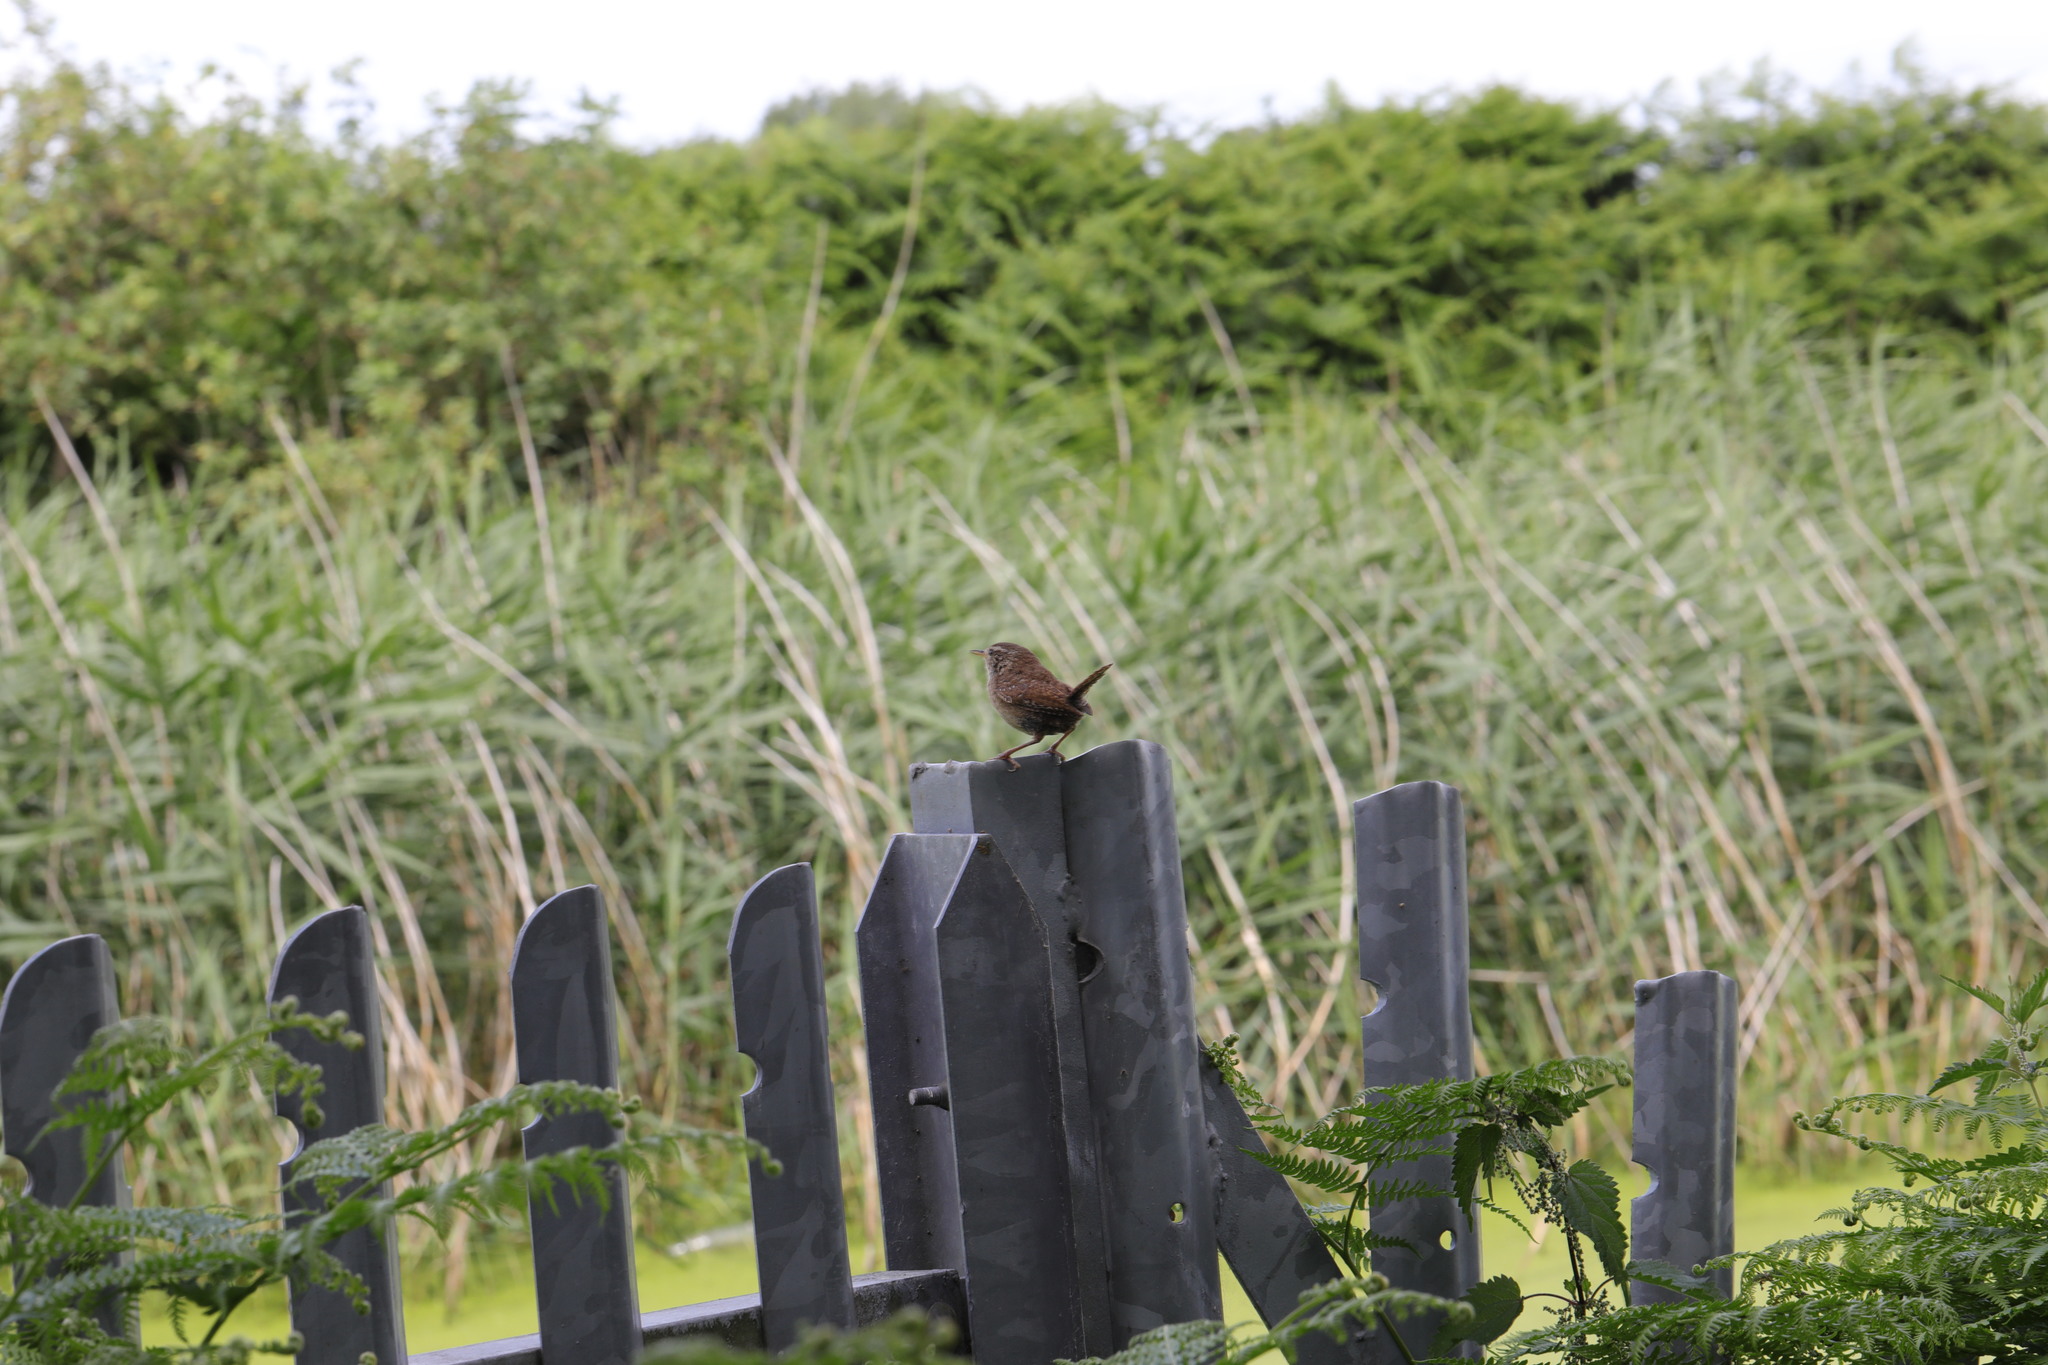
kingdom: Animalia
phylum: Chordata
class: Aves
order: Passeriformes
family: Troglodytidae
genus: Troglodytes
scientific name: Troglodytes troglodytes
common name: Eurasian wren
